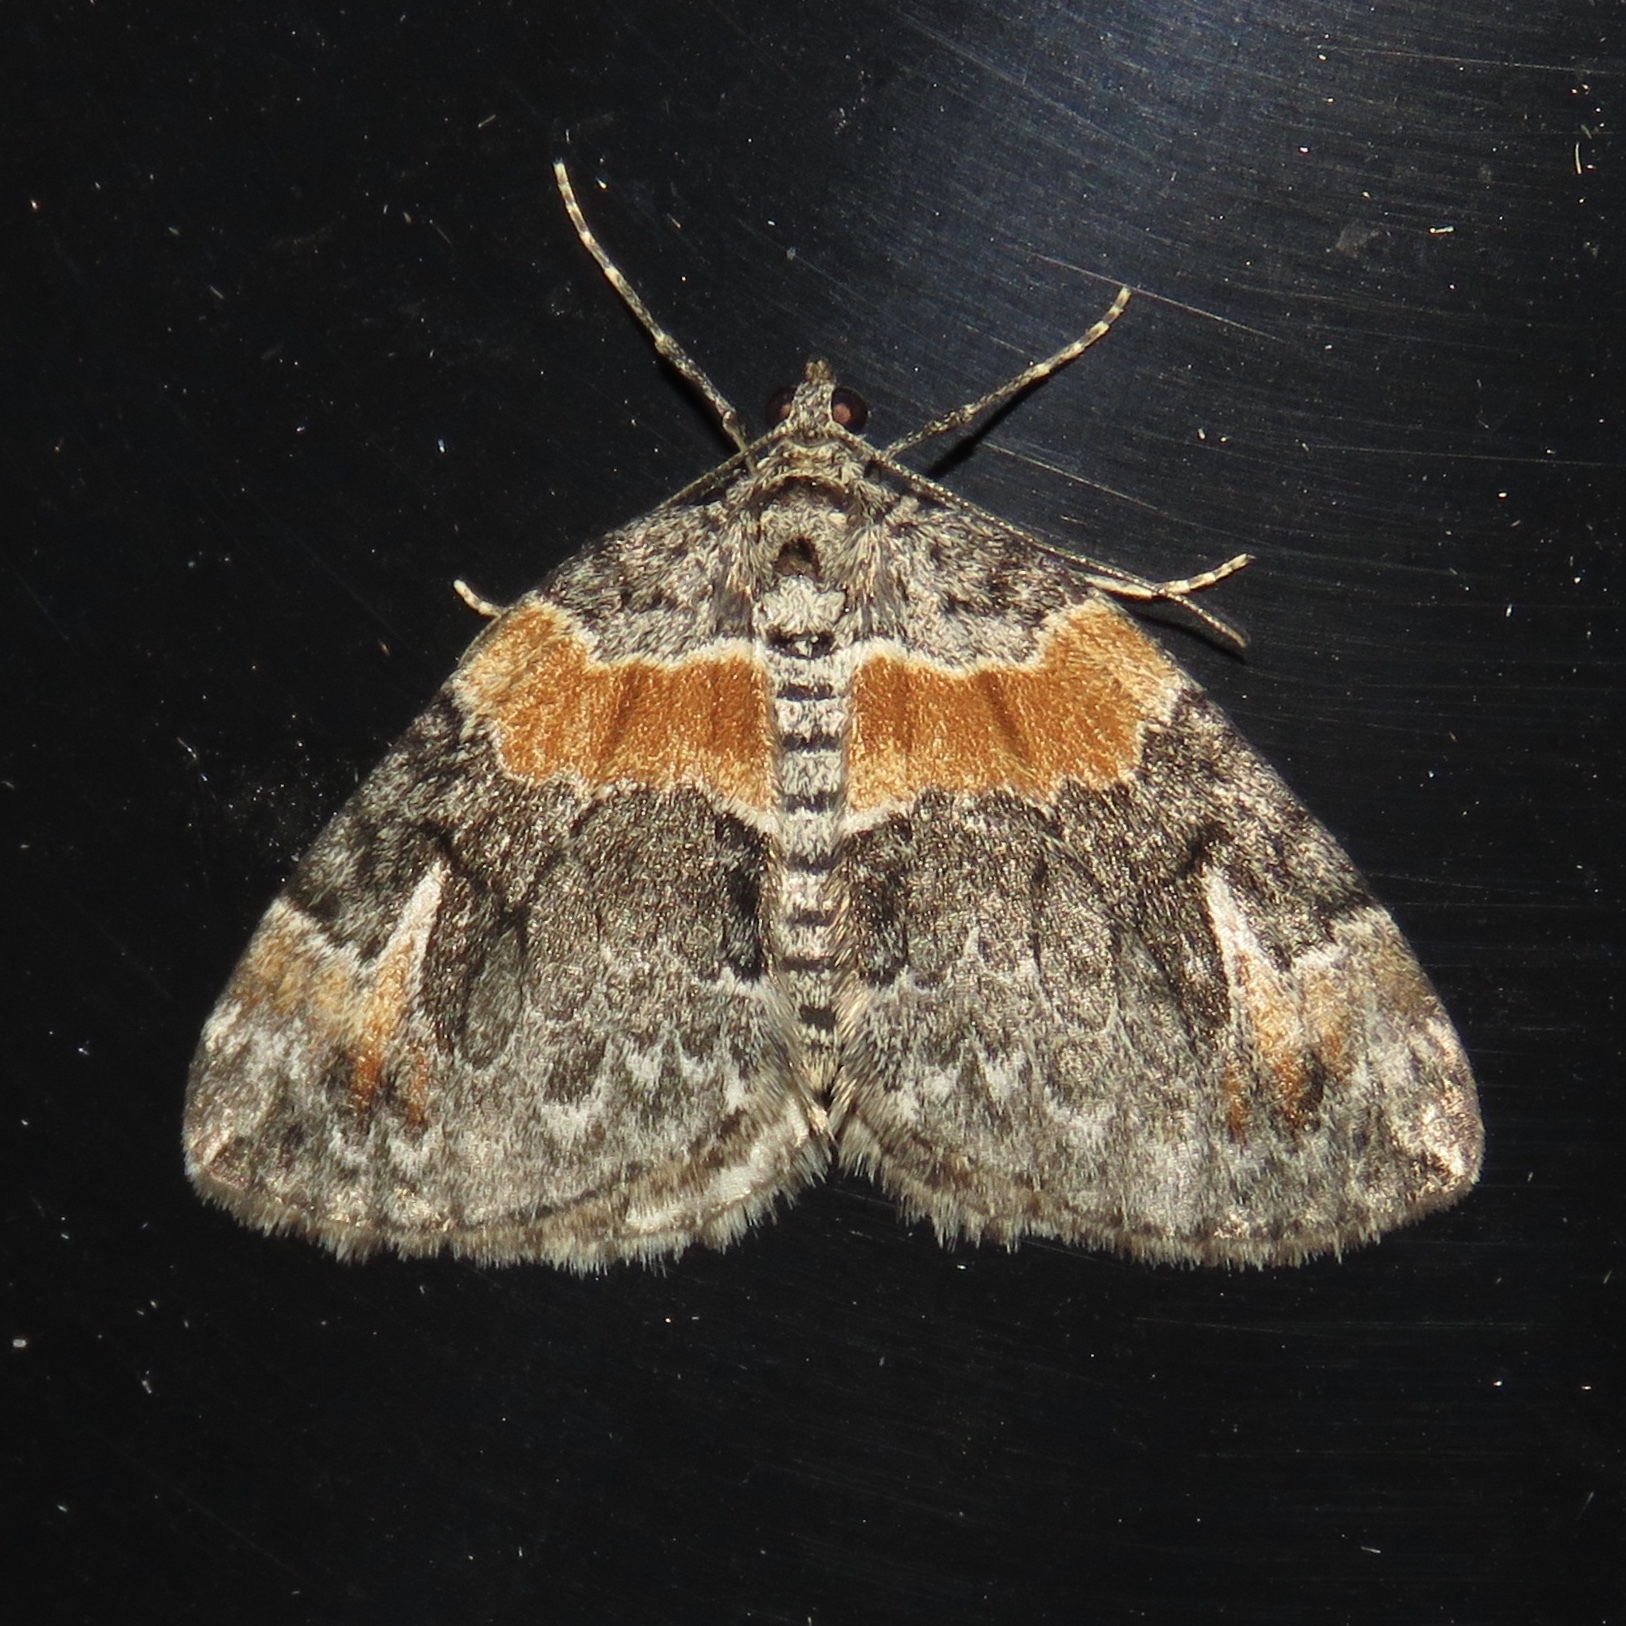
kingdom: Animalia
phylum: Arthropoda
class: Insecta
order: Lepidoptera
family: Geometridae
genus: Dysstroma
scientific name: Dysstroma hersiliata
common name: Orange-barred carpet
